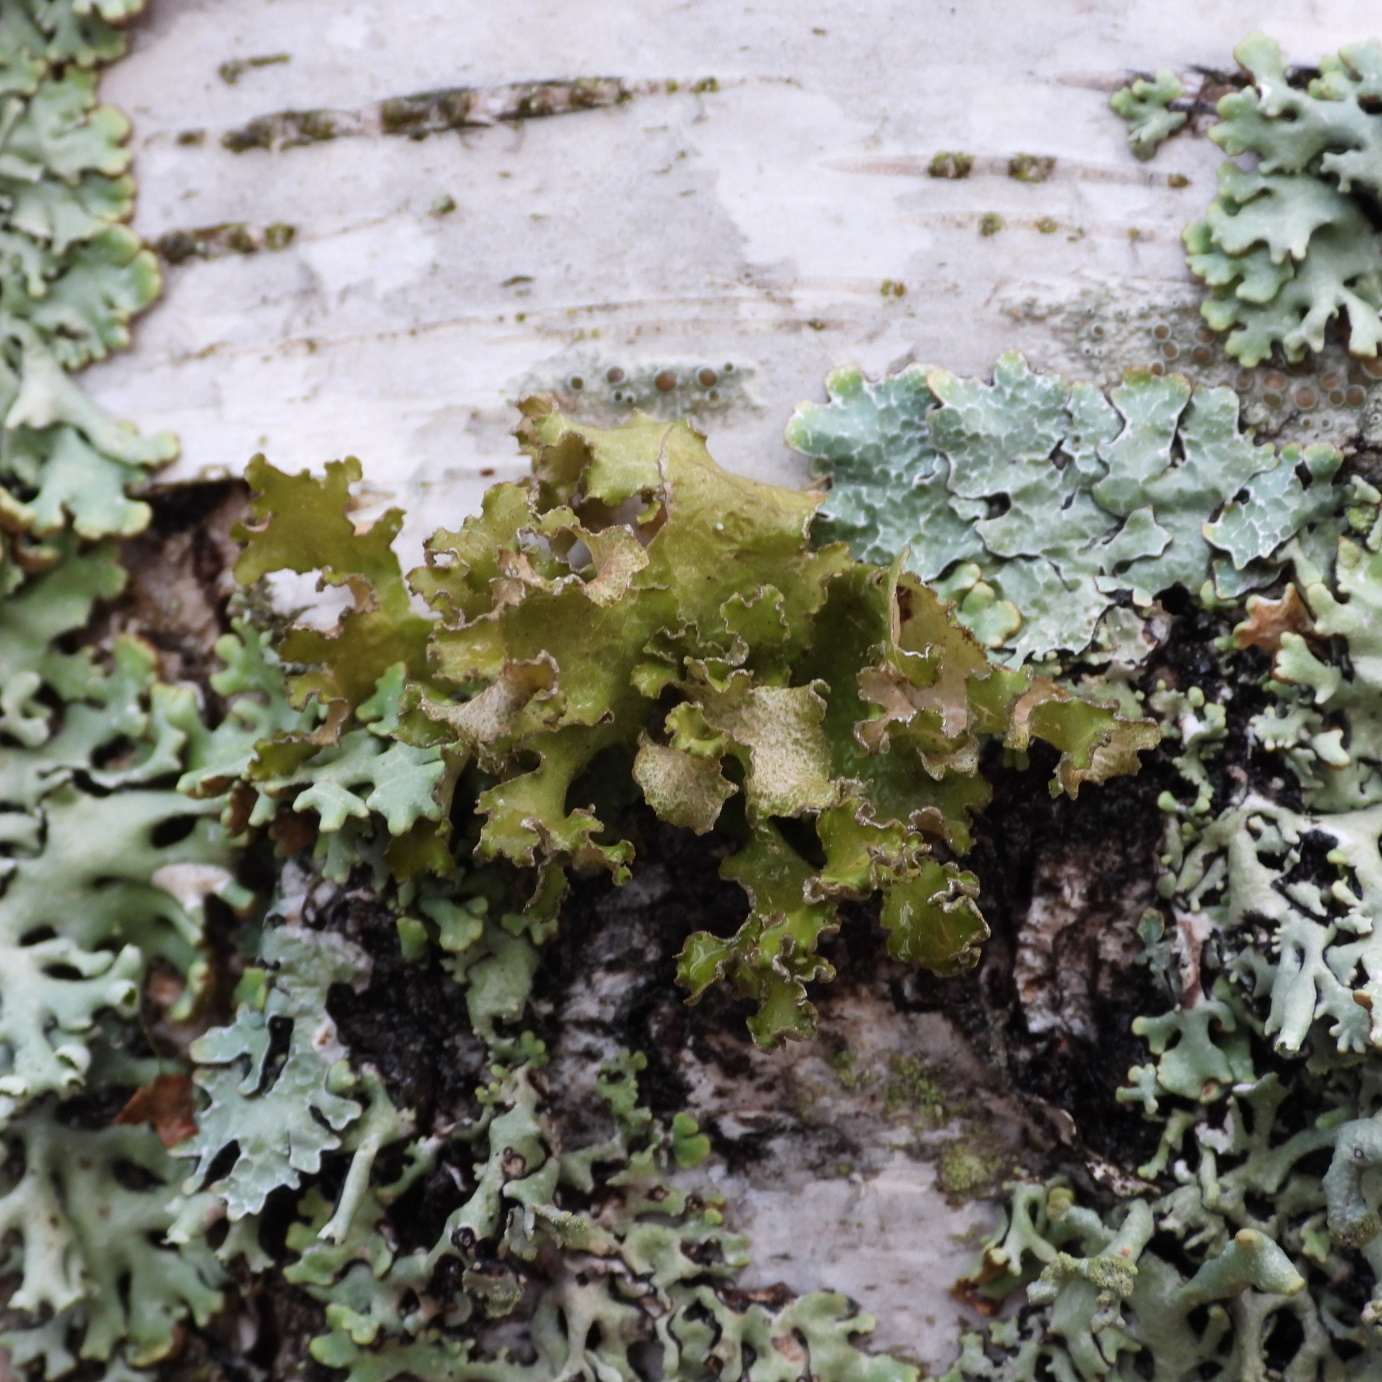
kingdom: Fungi
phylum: Ascomycota
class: Lecanoromycetes
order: Lecanorales
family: Parmeliaceae
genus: Nephromopsis
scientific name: Nephromopsis chlorophylla
